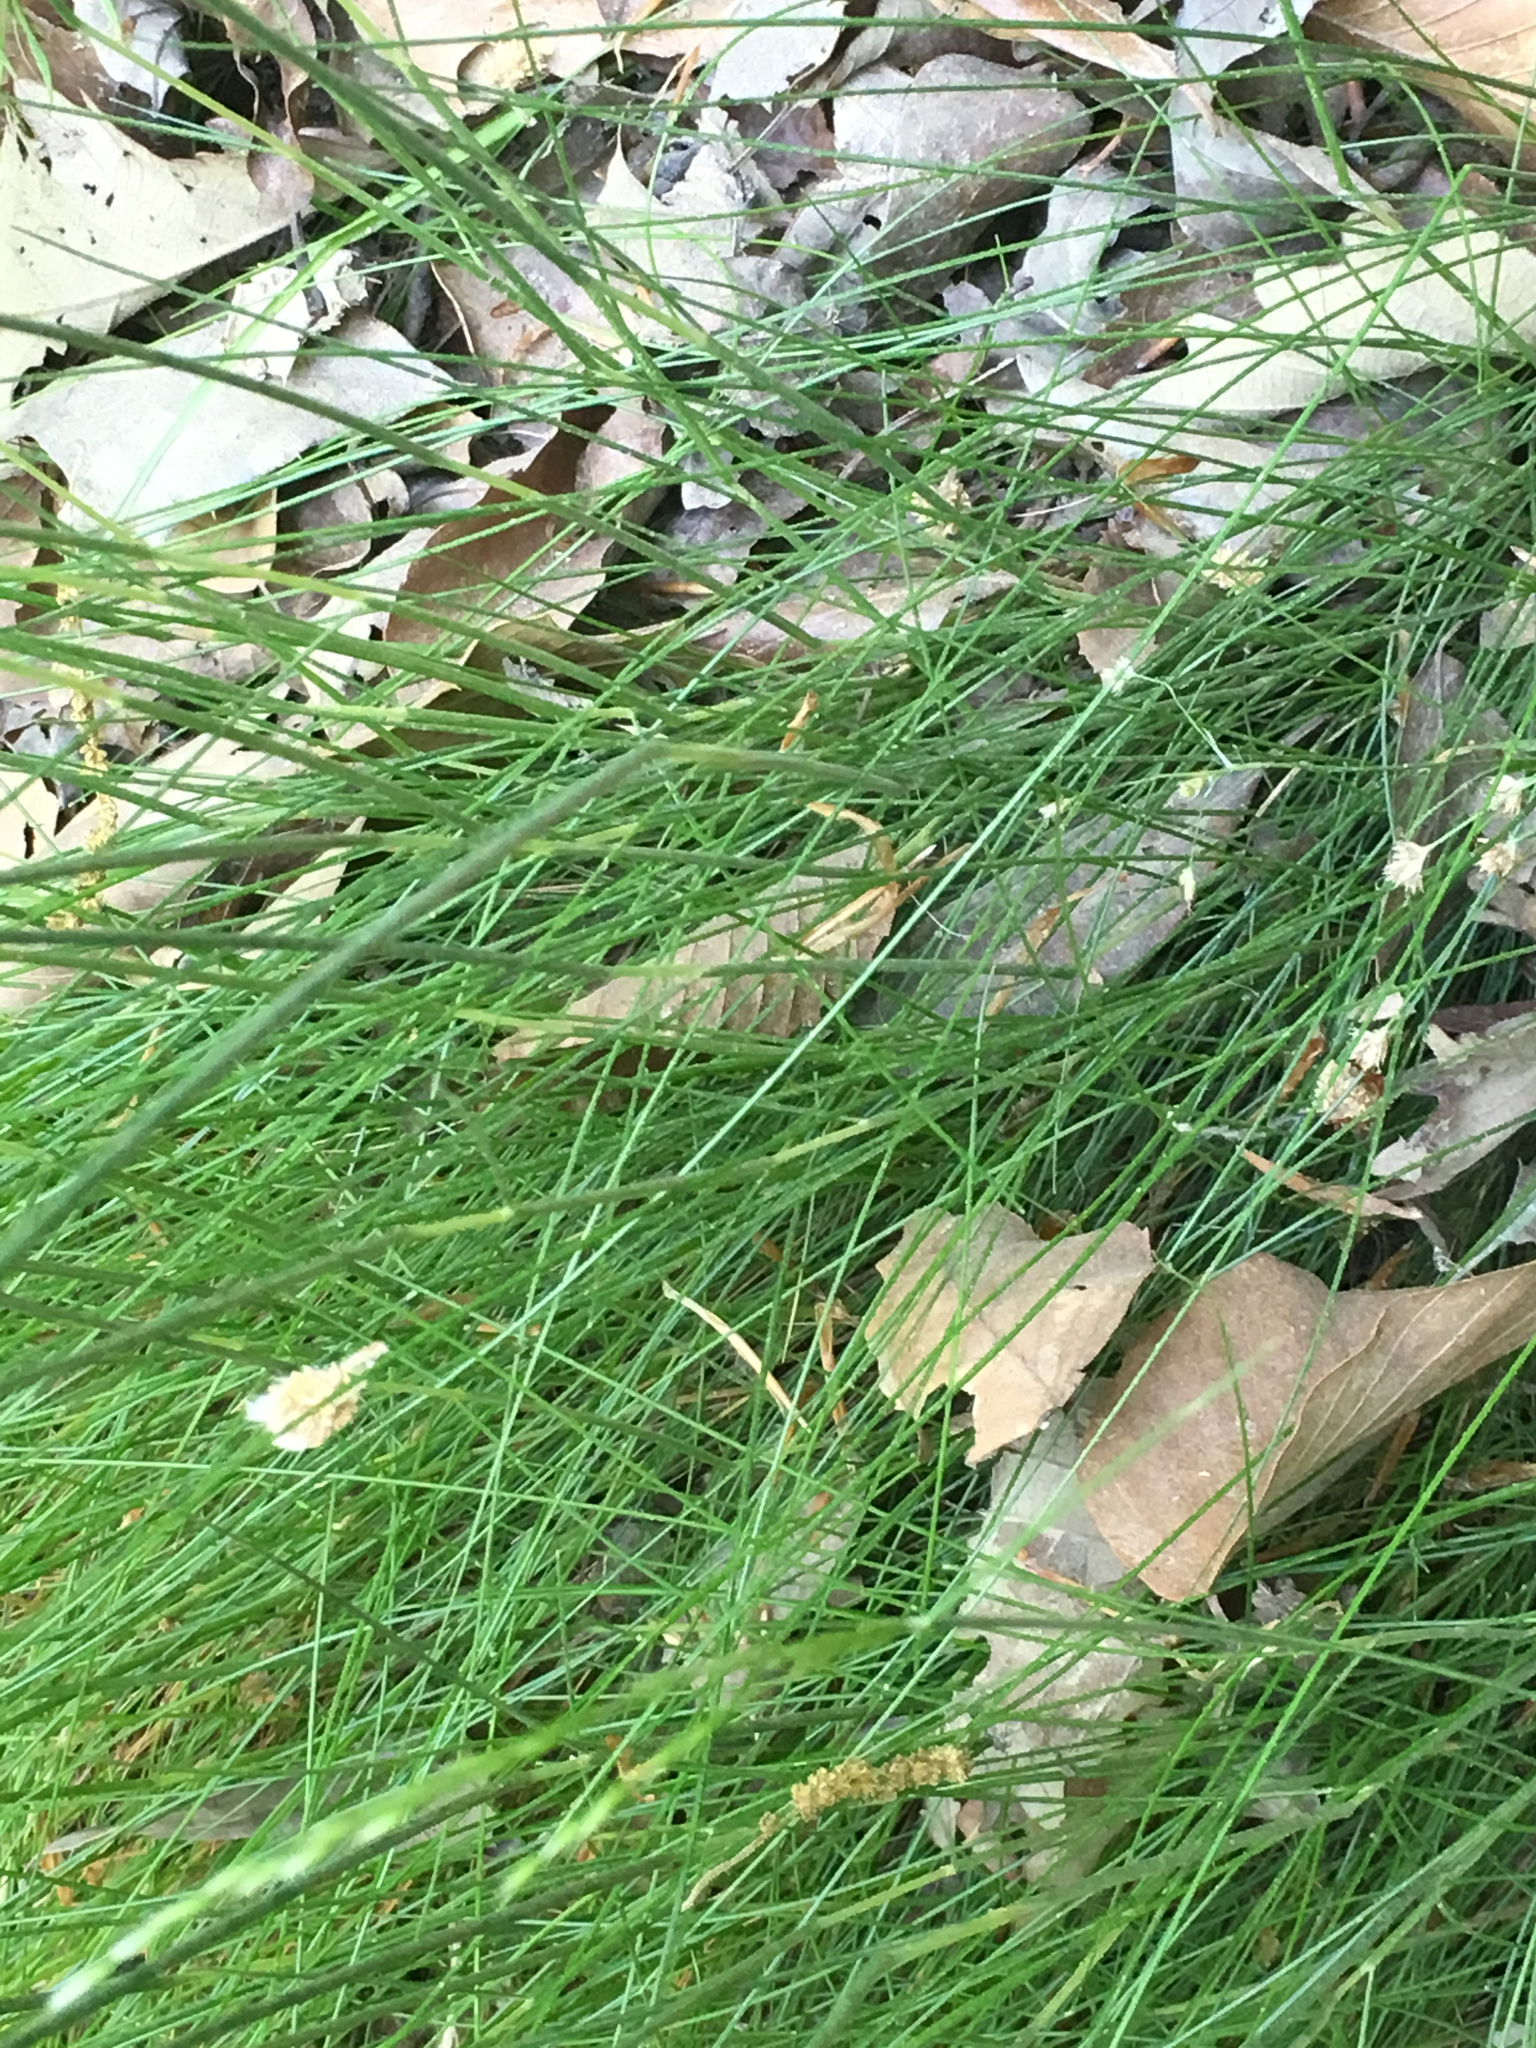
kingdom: Plantae
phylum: Tracheophyta
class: Liliopsida
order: Poales
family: Poaceae
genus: Avenella
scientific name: Avenella flexuosa
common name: Wavy hairgrass
